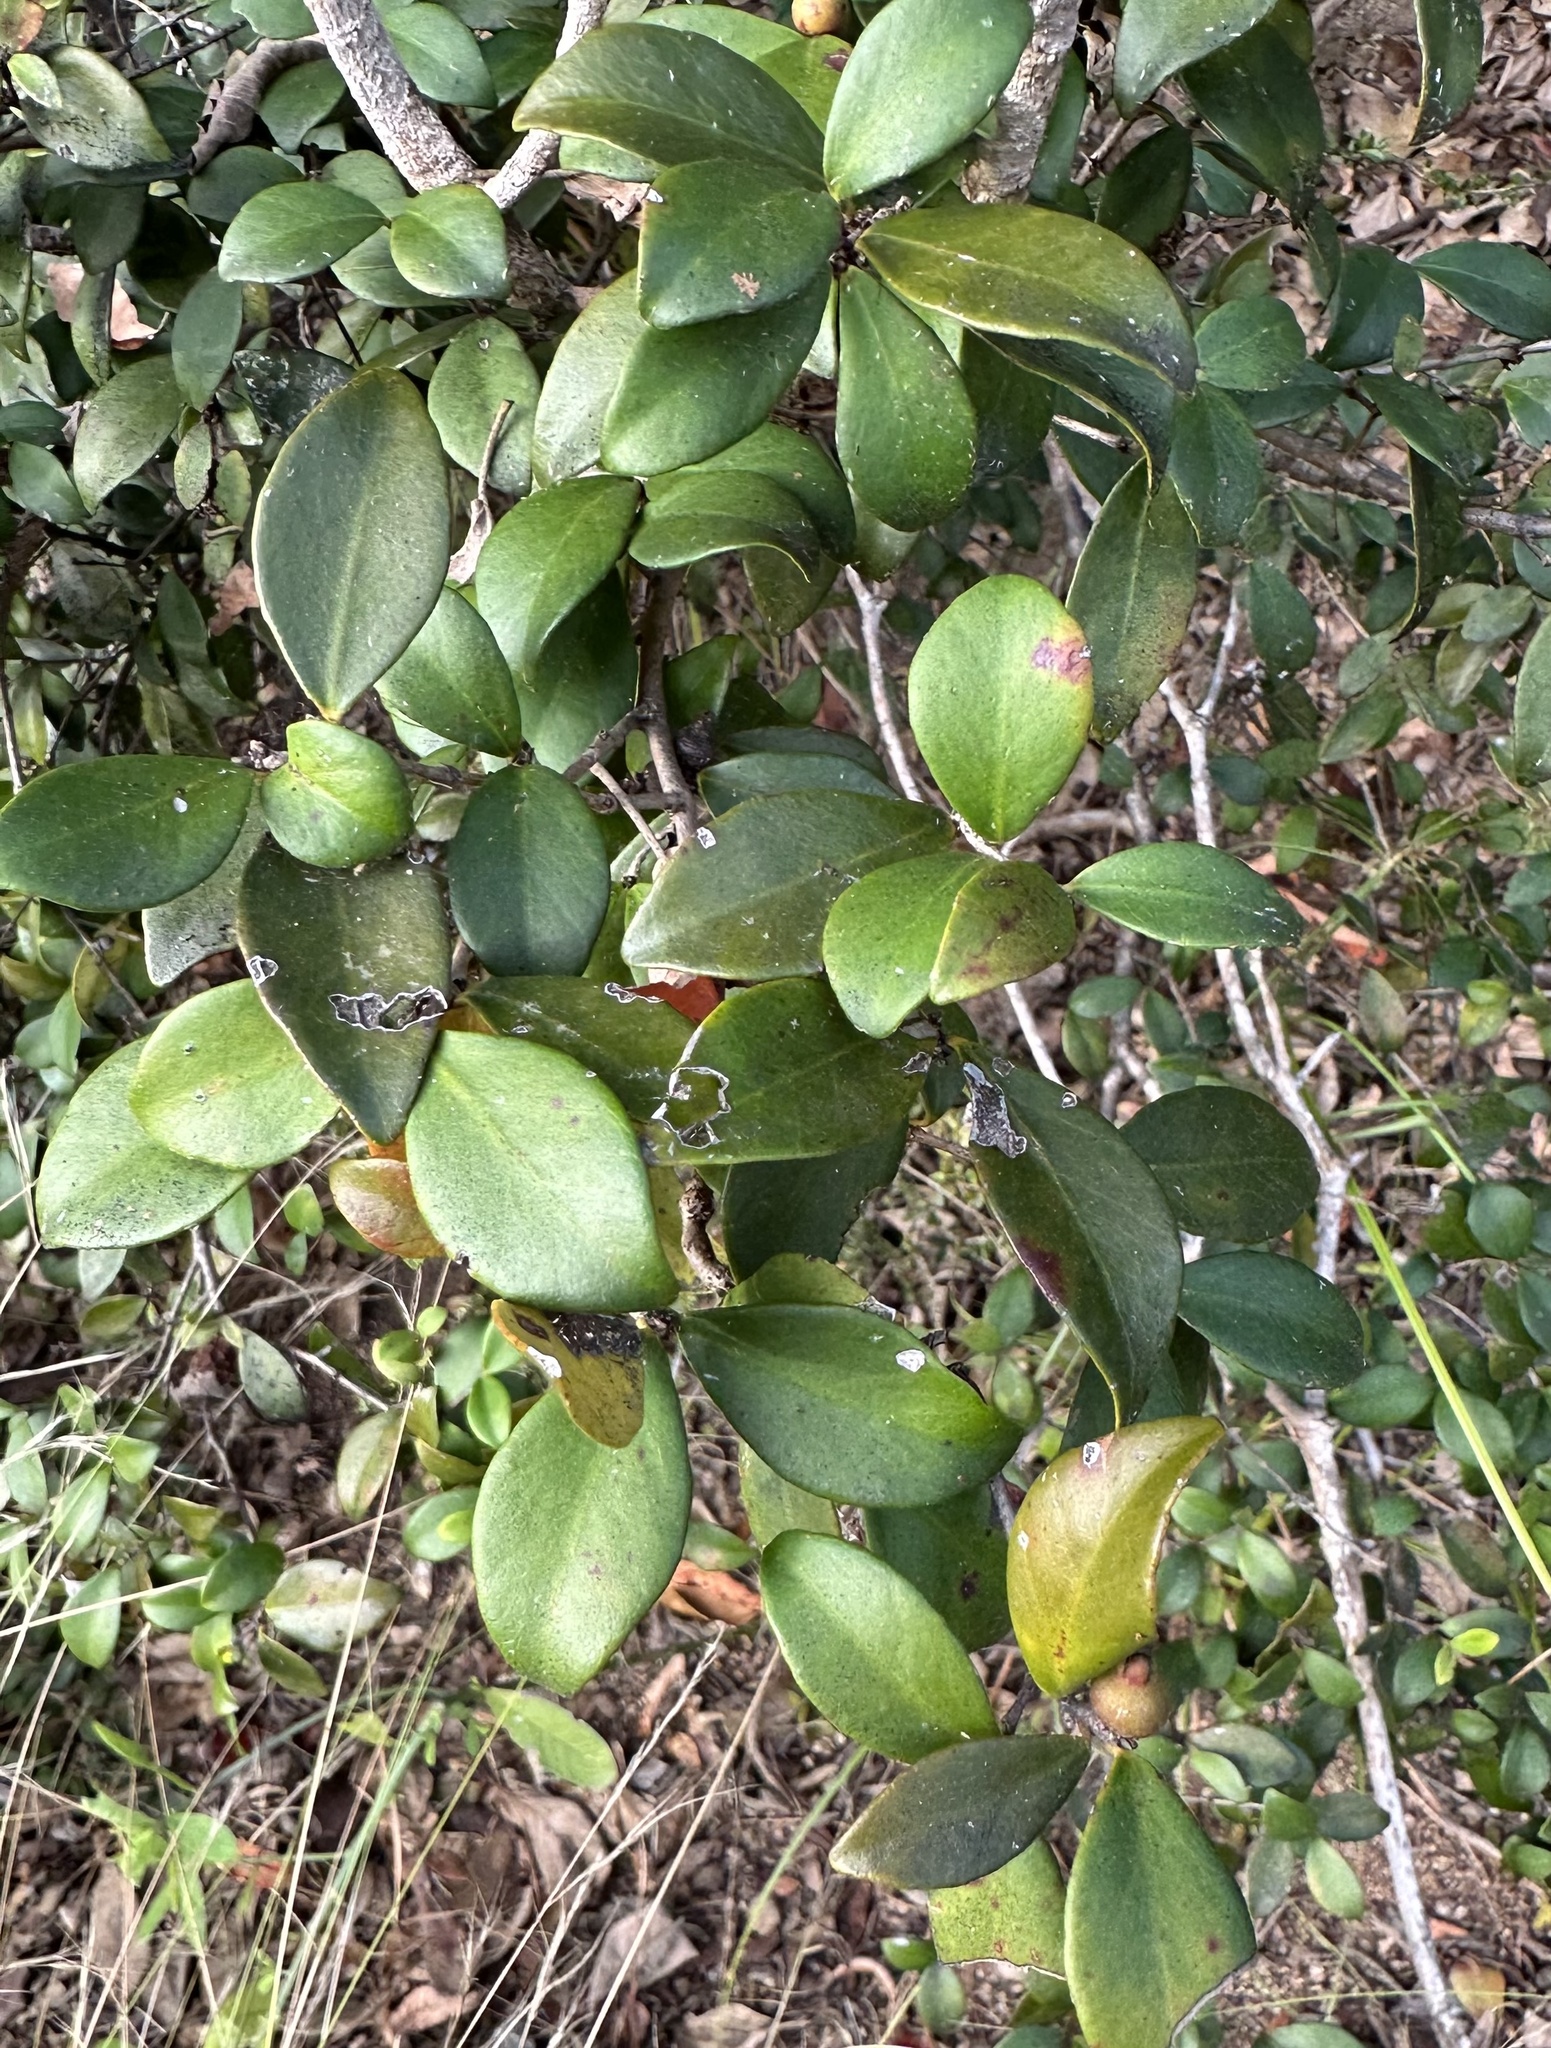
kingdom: Plantae
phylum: Tracheophyta
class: Magnoliopsida
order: Myrtales
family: Myrtaceae
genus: Eugenia
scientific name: Eugenia reinwardtiana
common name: Cedar bay-cherry
